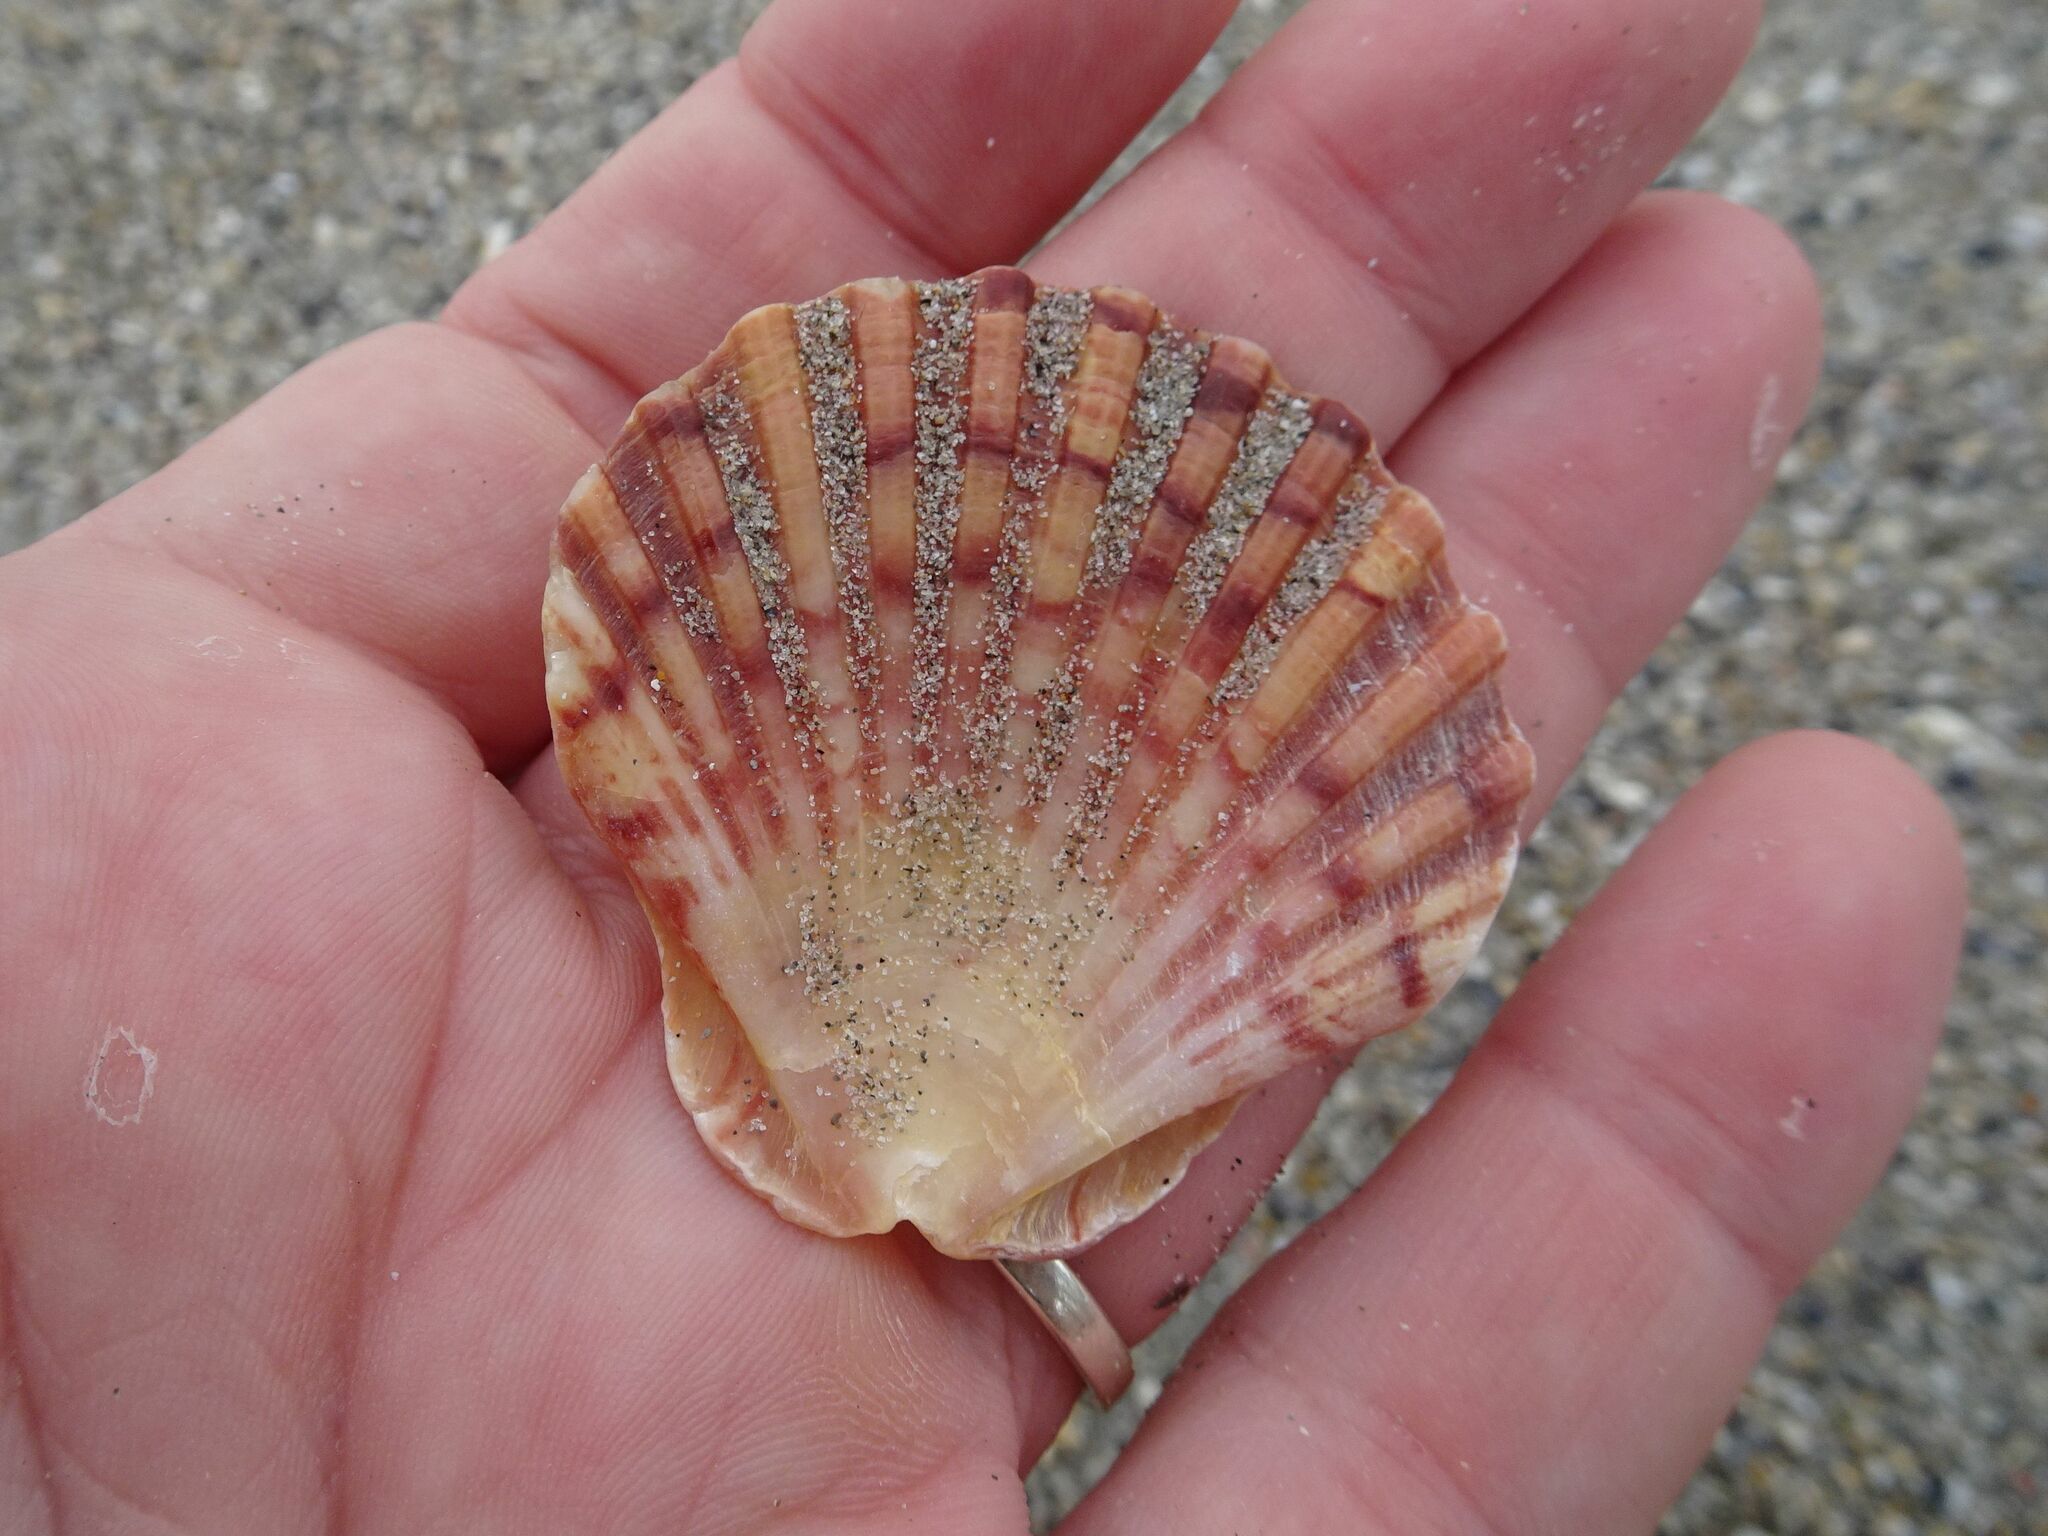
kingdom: Animalia
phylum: Mollusca
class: Bivalvia
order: Pectinida
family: Pectinidae
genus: Pecten
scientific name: Pecten maximus
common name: Great scallop
